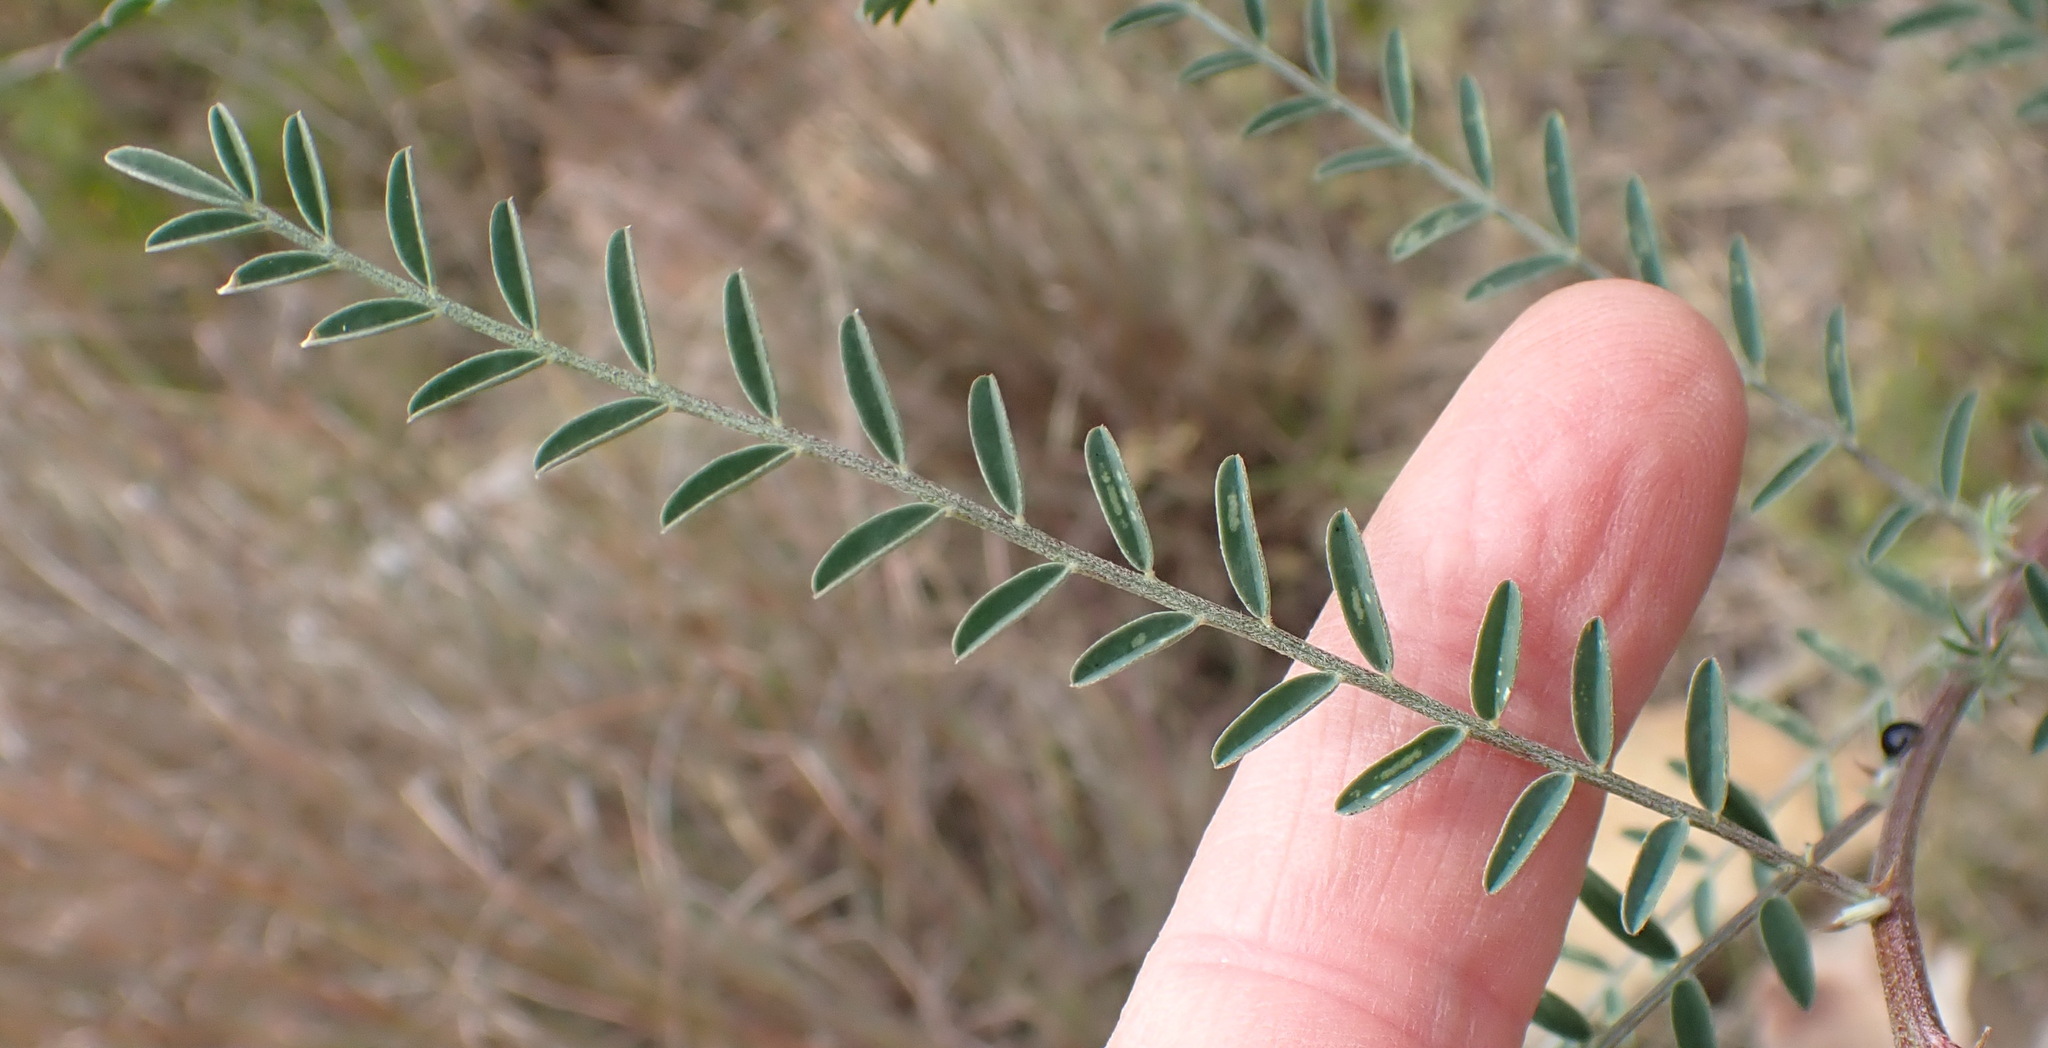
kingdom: Plantae
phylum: Tracheophyta
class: Magnoliopsida
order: Fabales
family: Fabaceae
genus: Lessertia
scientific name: Lessertia frutescens
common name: Balloon-pea
